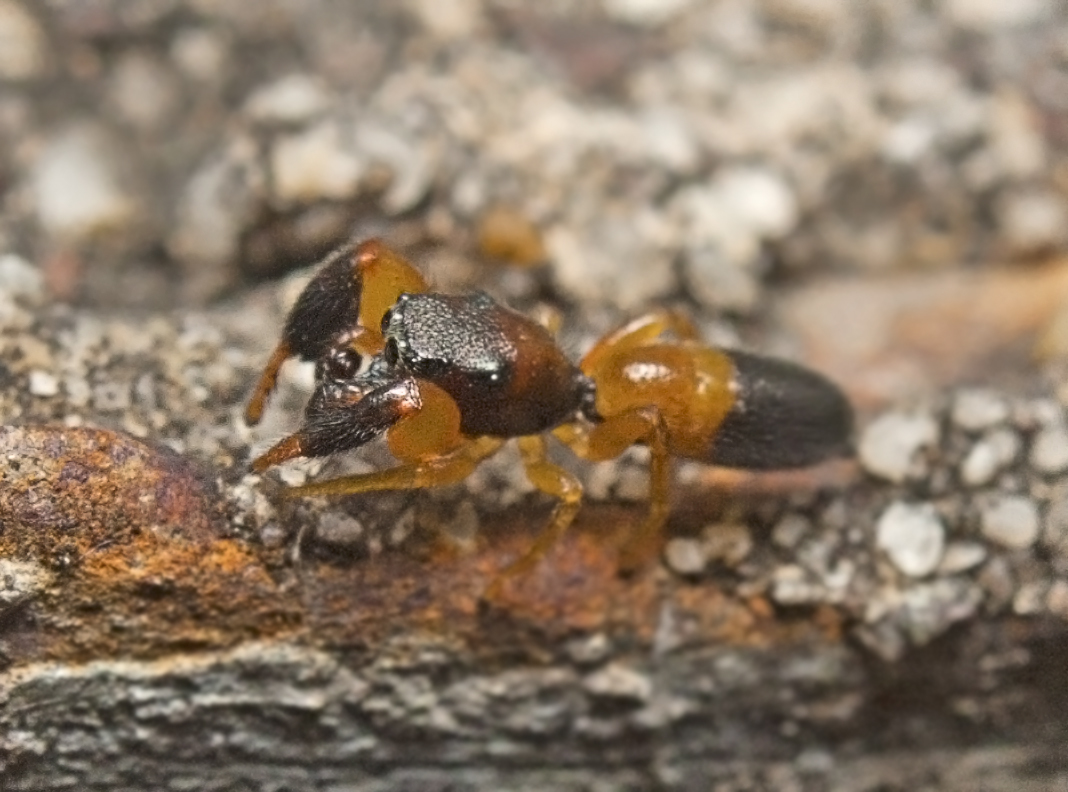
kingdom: Animalia
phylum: Arthropoda
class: Arachnida
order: Araneae
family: Salticidae
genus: Judalana
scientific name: Judalana lutea
